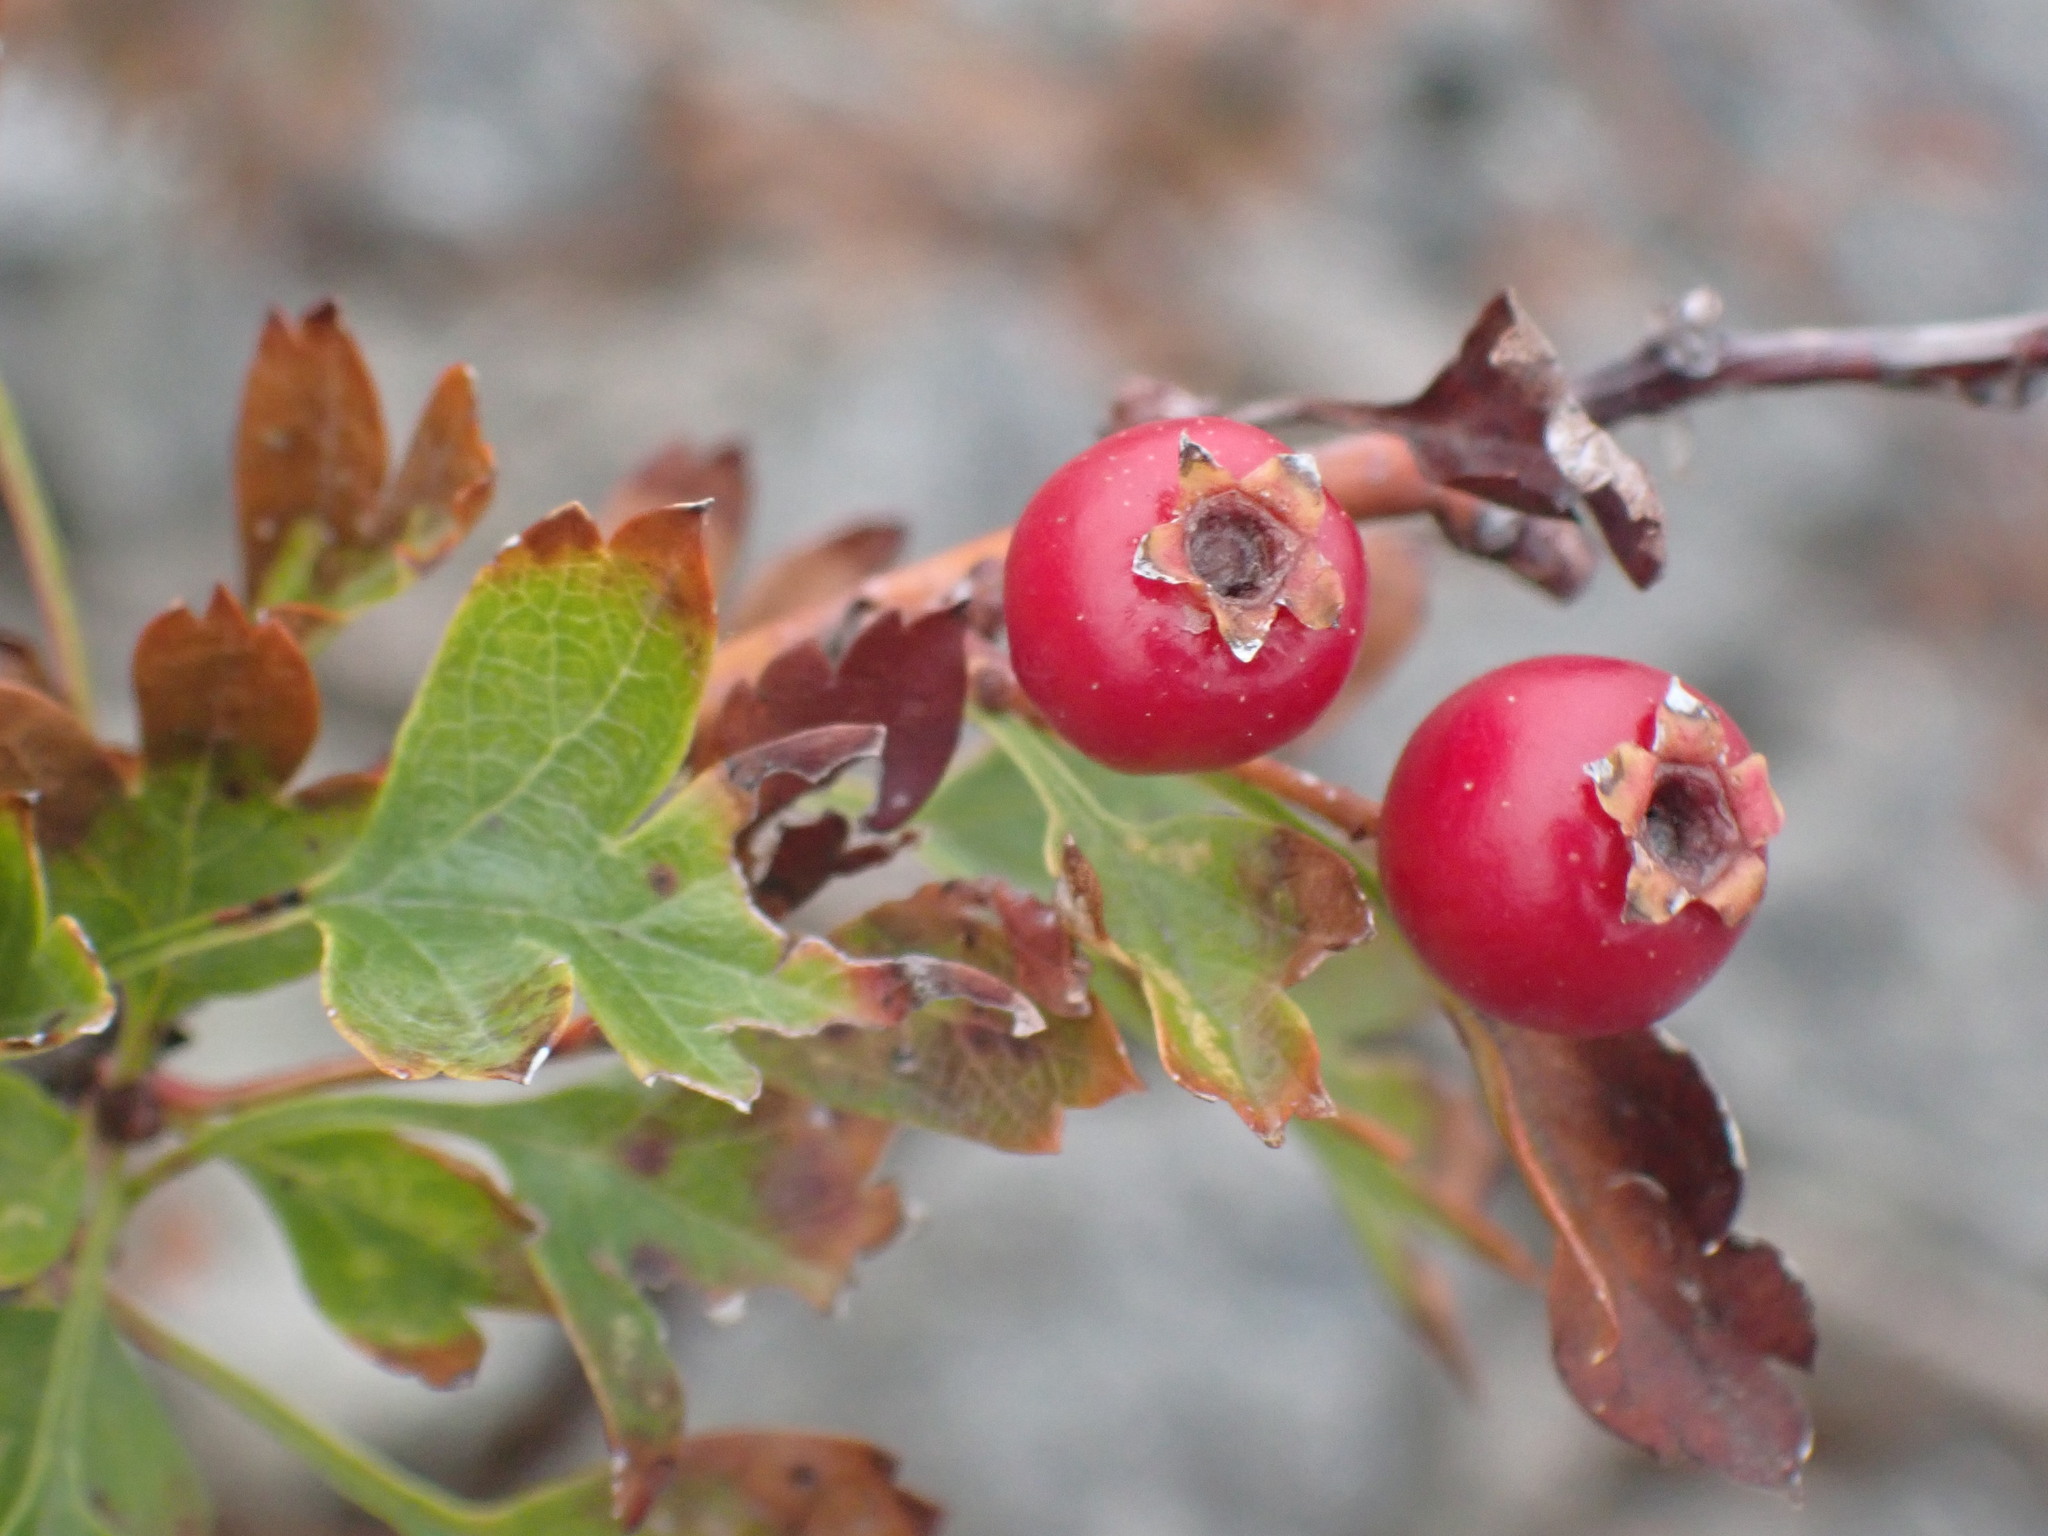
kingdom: Plantae
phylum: Tracheophyta
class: Magnoliopsida
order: Rosales
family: Rosaceae
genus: Crataegus
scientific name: Crataegus monogyna
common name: Hawthorn
